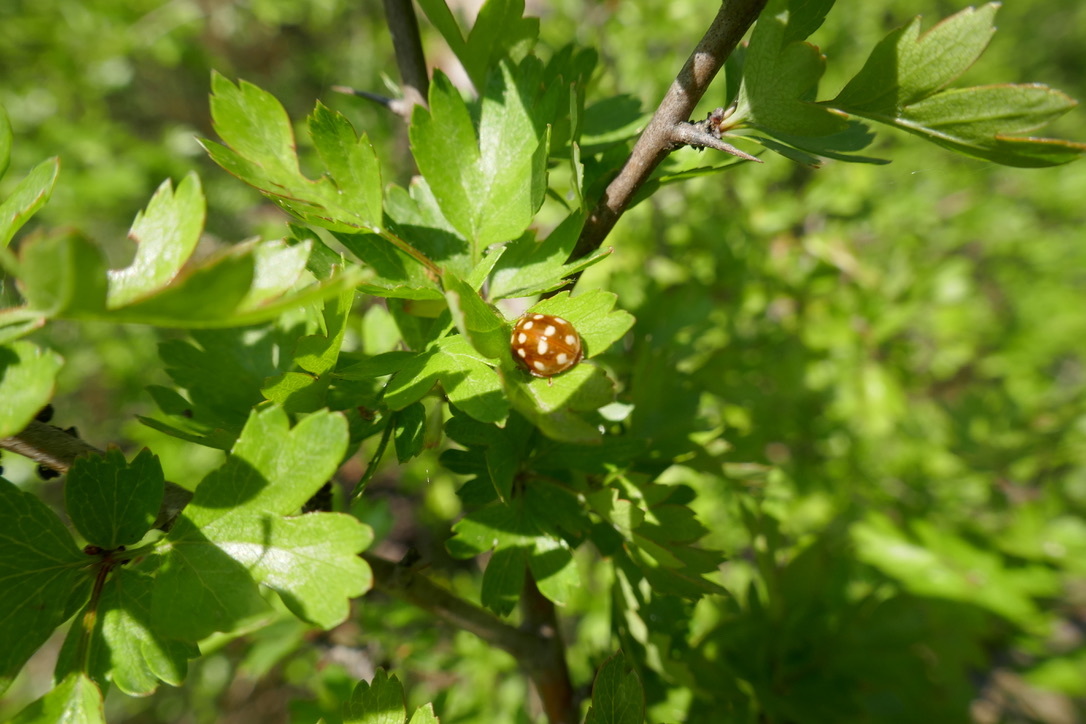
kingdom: Animalia
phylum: Arthropoda
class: Insecta
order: Coleoptera
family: Coccinellidae
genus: Calvia
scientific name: Calvia quatuordecimguttata
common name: Cream-spot ladybird
